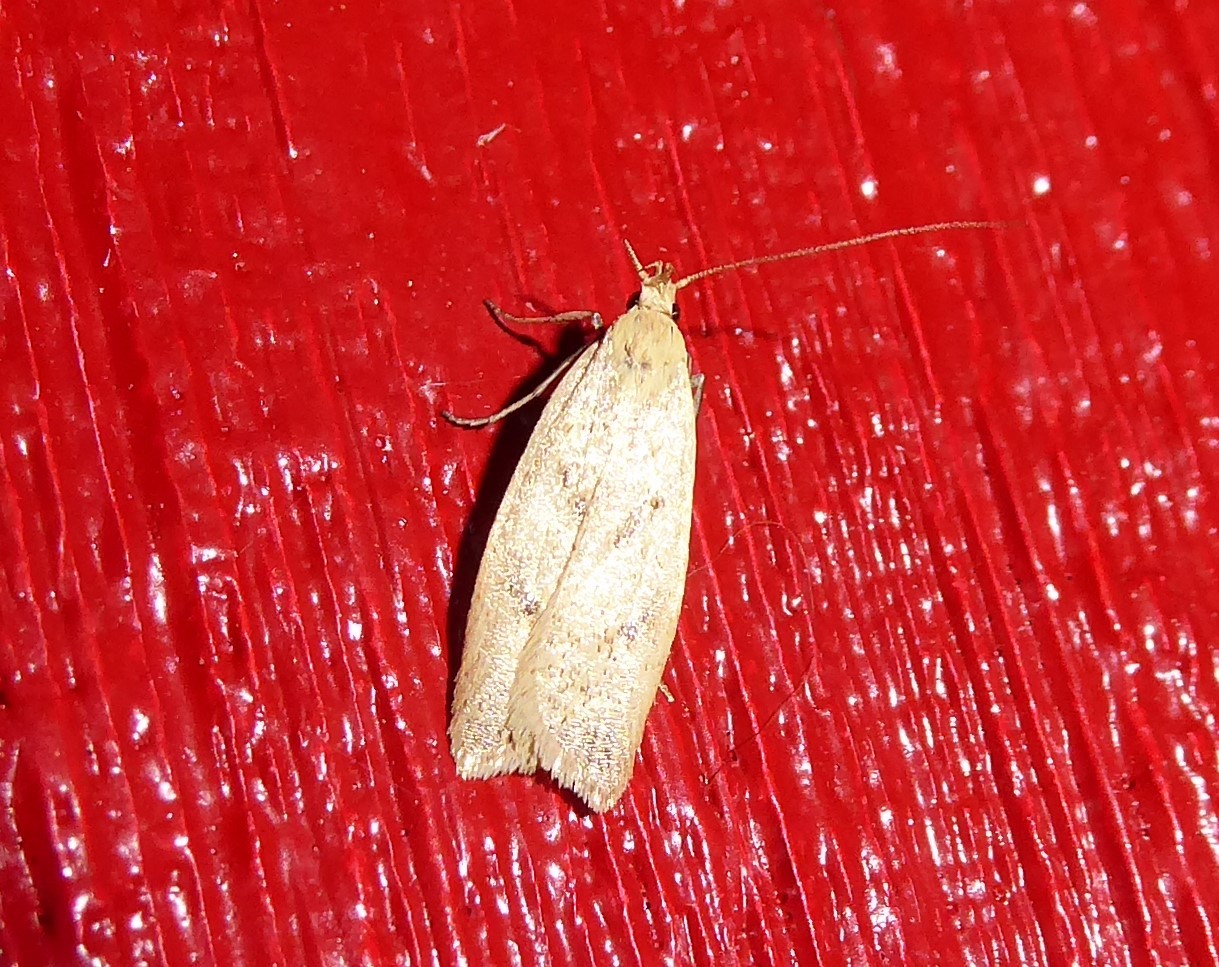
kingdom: Animalia
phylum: Arthropoda
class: Insecta
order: Lepidoptera
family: Oecophoridae
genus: Gymnobathra
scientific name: Gymnobathra sarcoxantha
